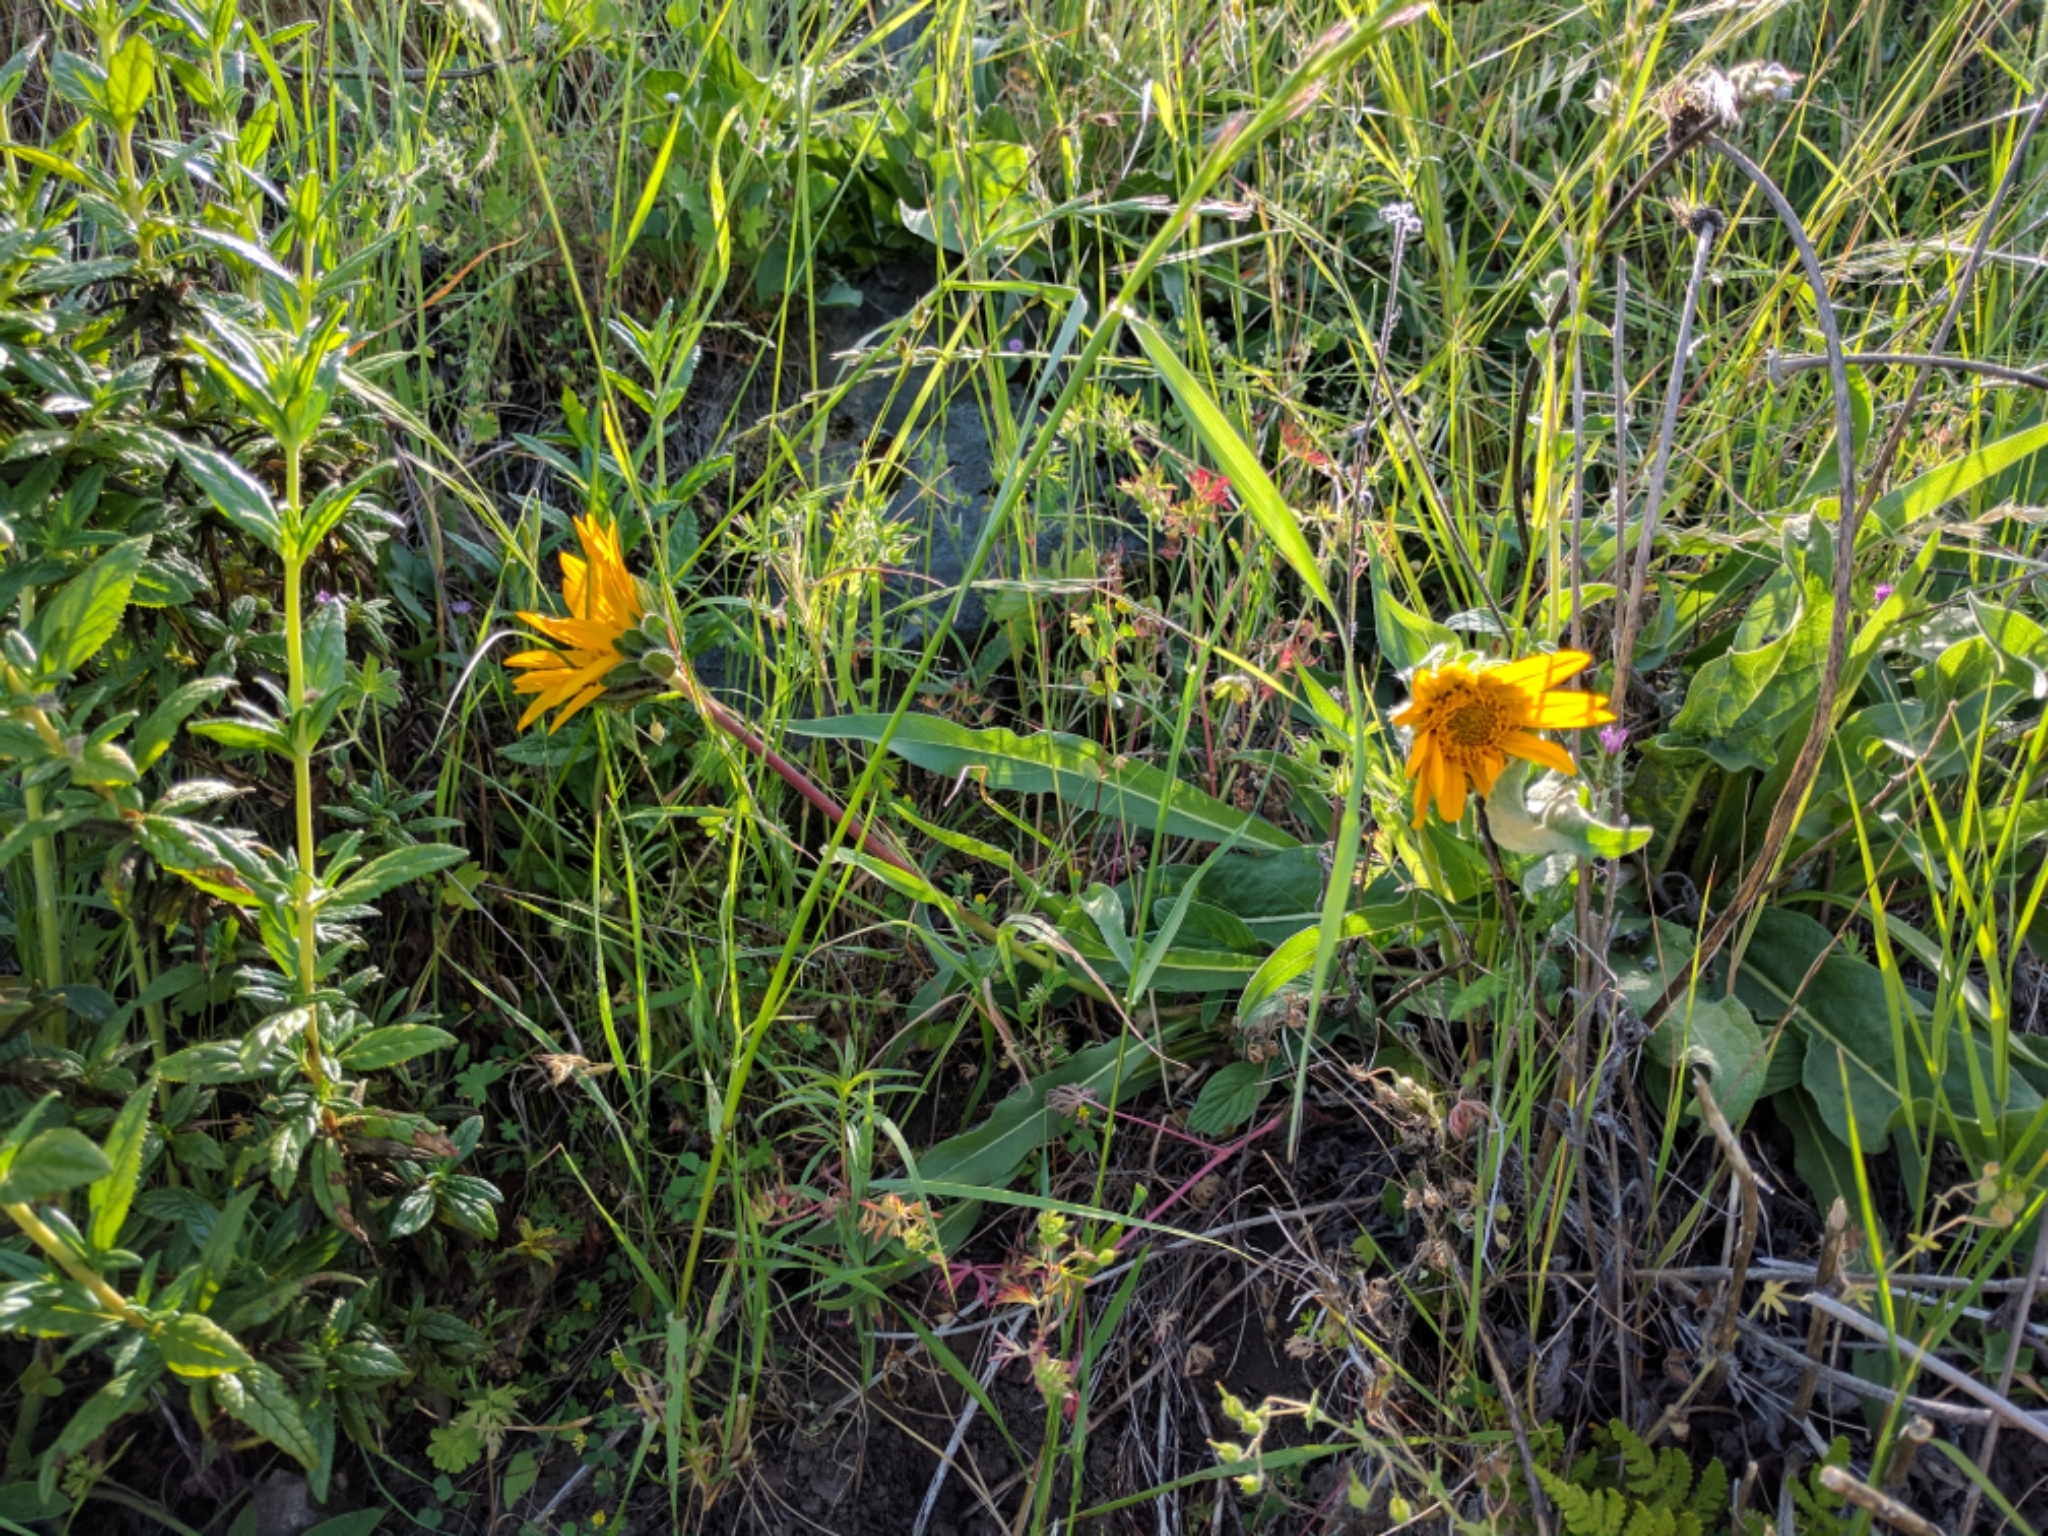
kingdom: Plantae
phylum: Tracheophyta
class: Magnoliopsida
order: Asterales
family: Asteraceae
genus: Wyethia
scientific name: Wyethia angustifolia
